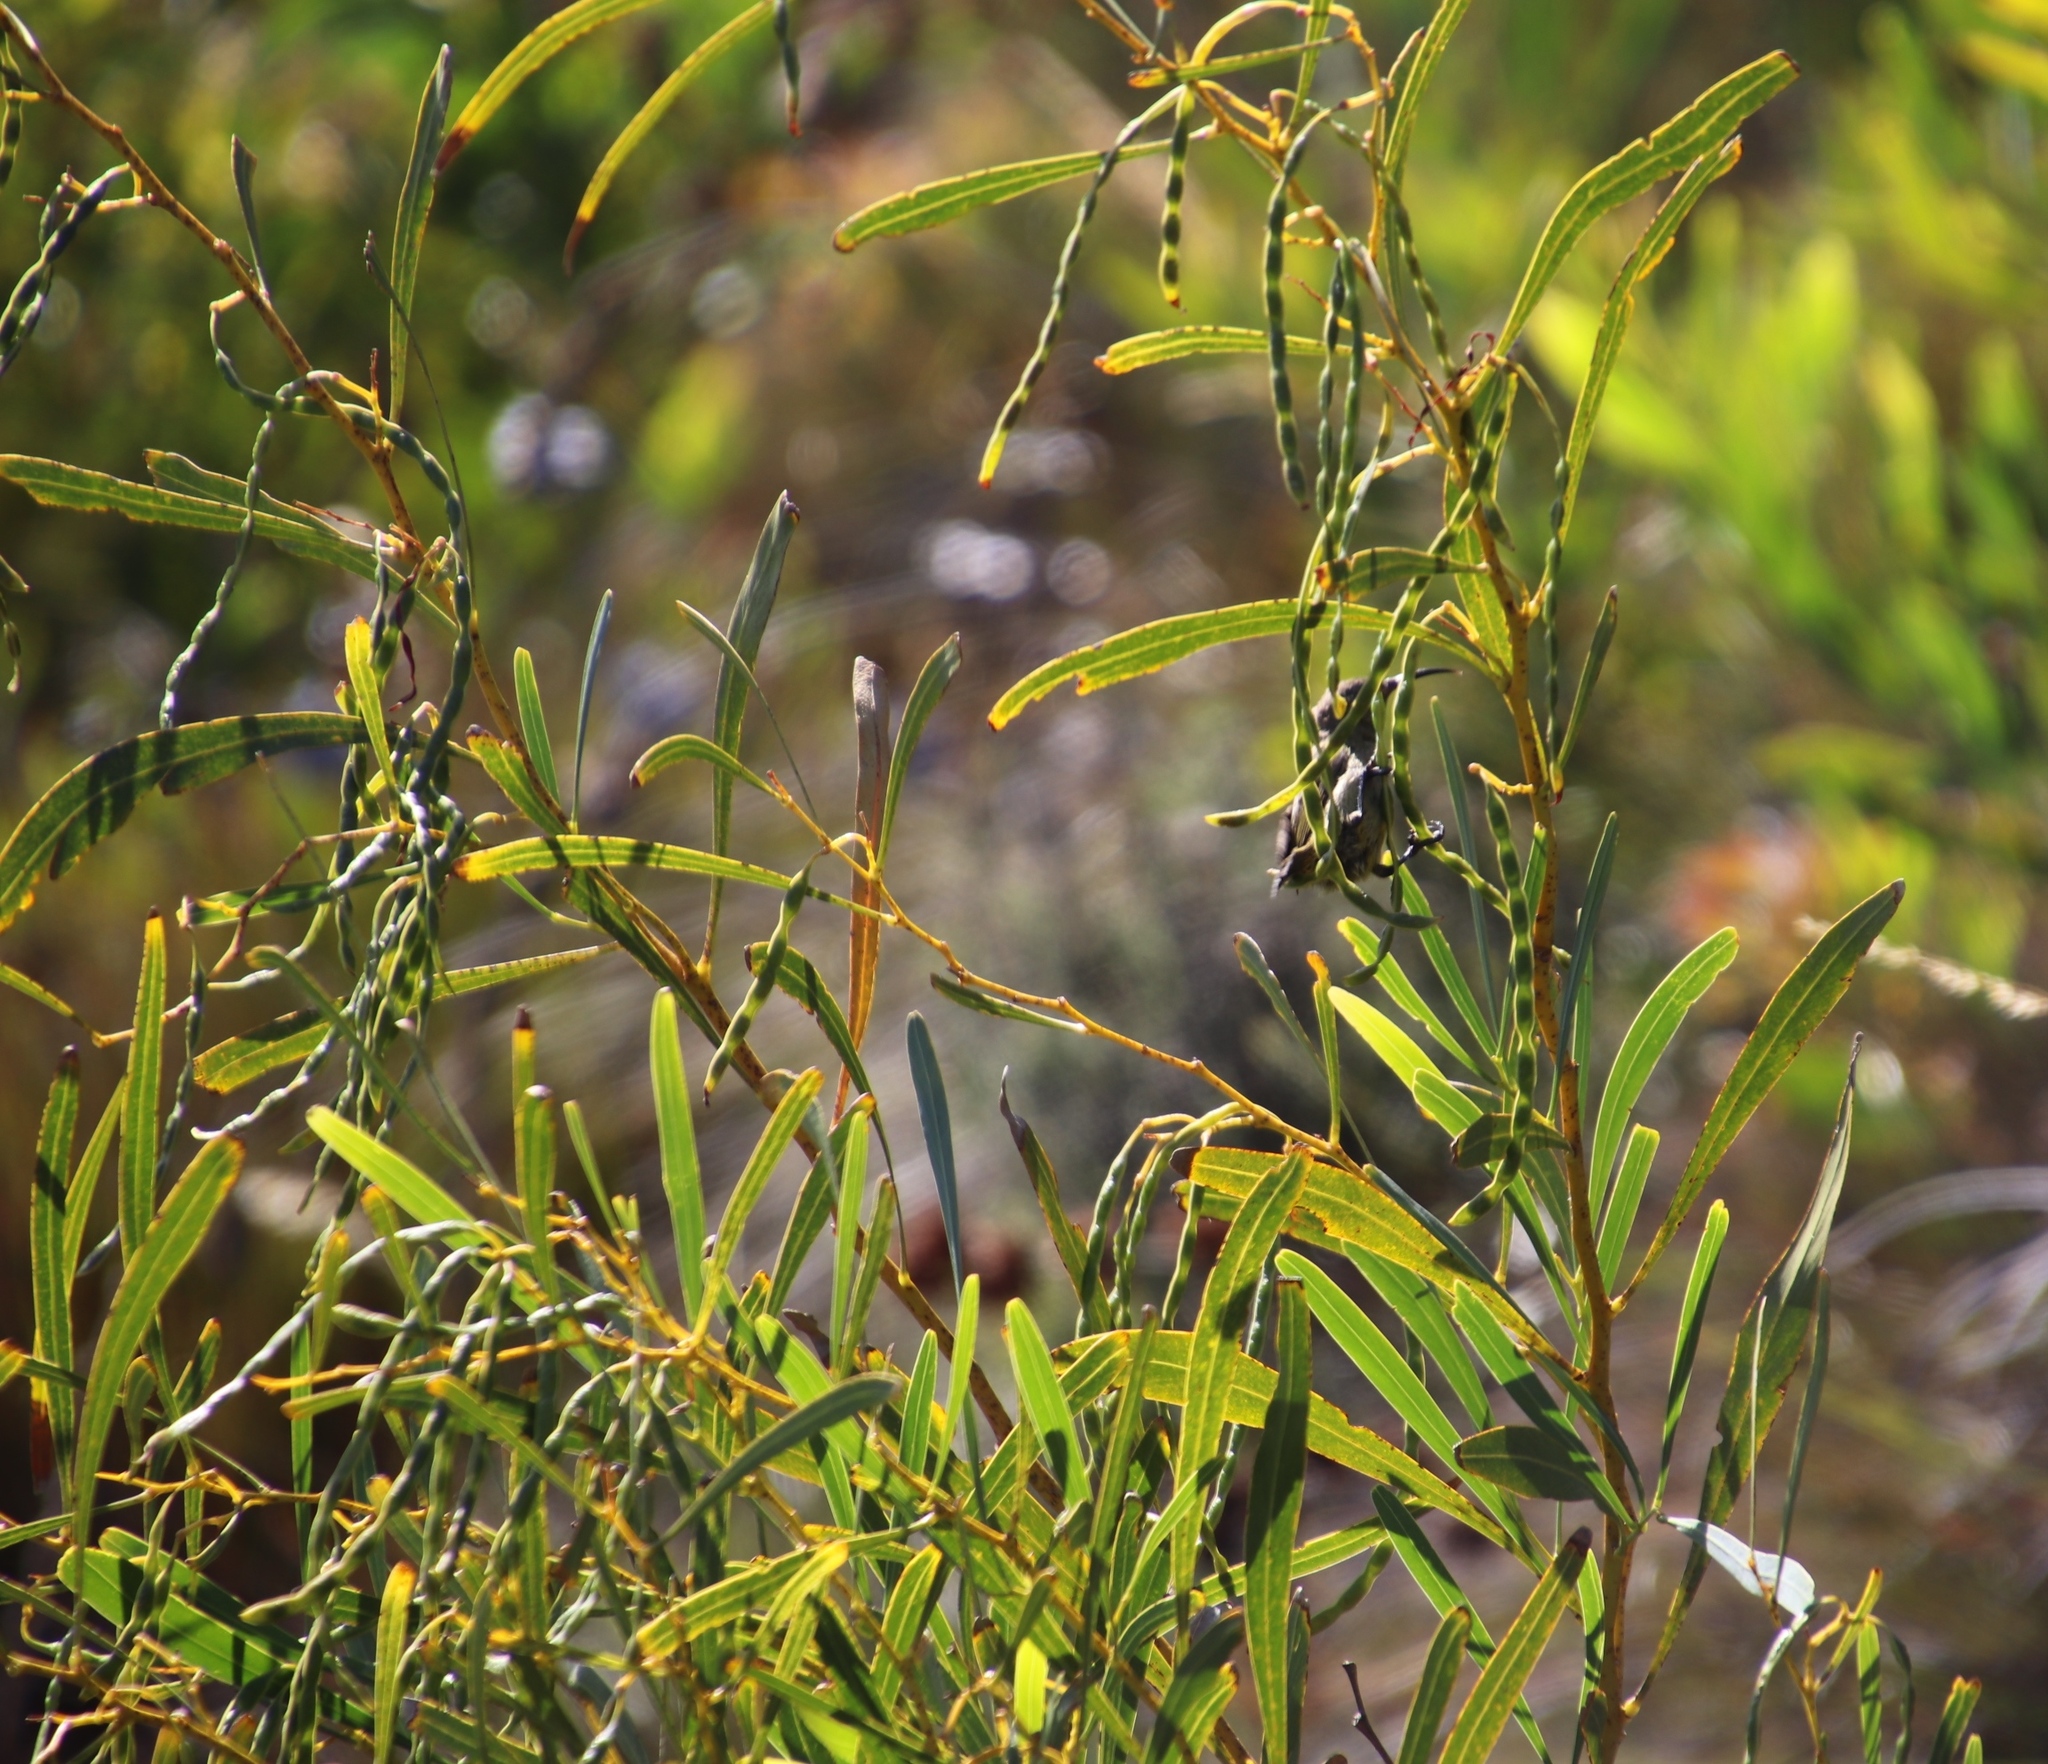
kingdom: Animalia
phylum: Chordata
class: Aves
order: Passeriformes
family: Nectariniidae
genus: Anthobaphes
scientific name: Anthobaphes violacea
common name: Orange-breasted sunbird
